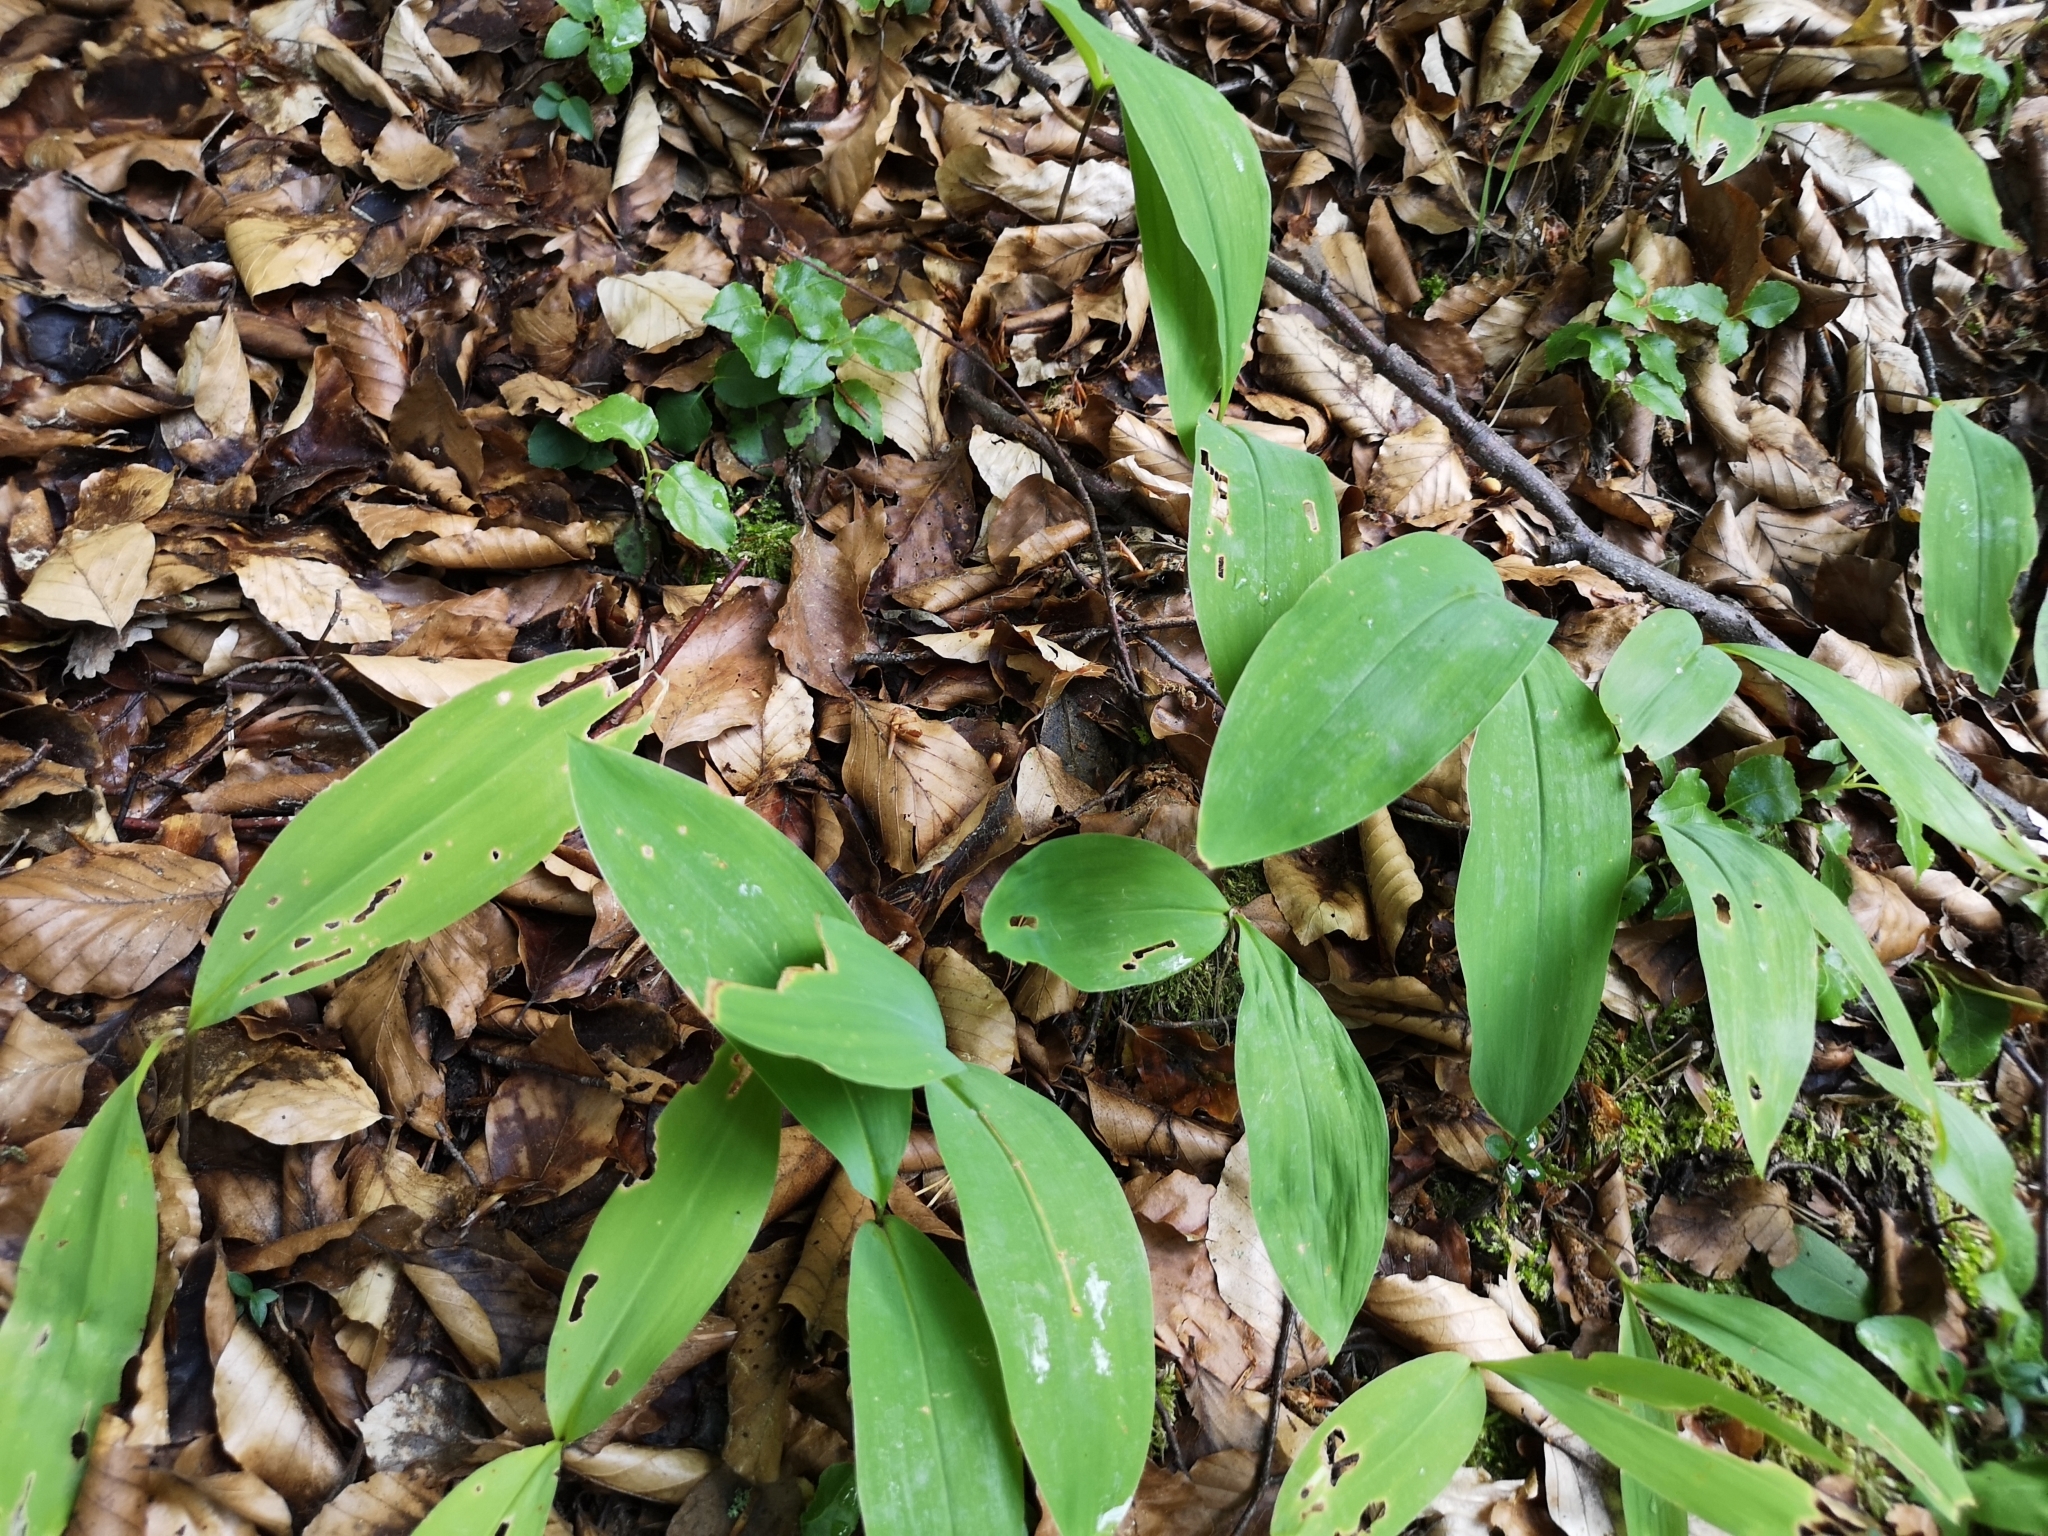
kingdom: Plantae
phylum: Tracheophyta
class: Liliopsida
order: Asparagales
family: Asparagaceae
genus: Convallaria
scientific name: Convallaria majalis
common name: Lily-of-the-valley
